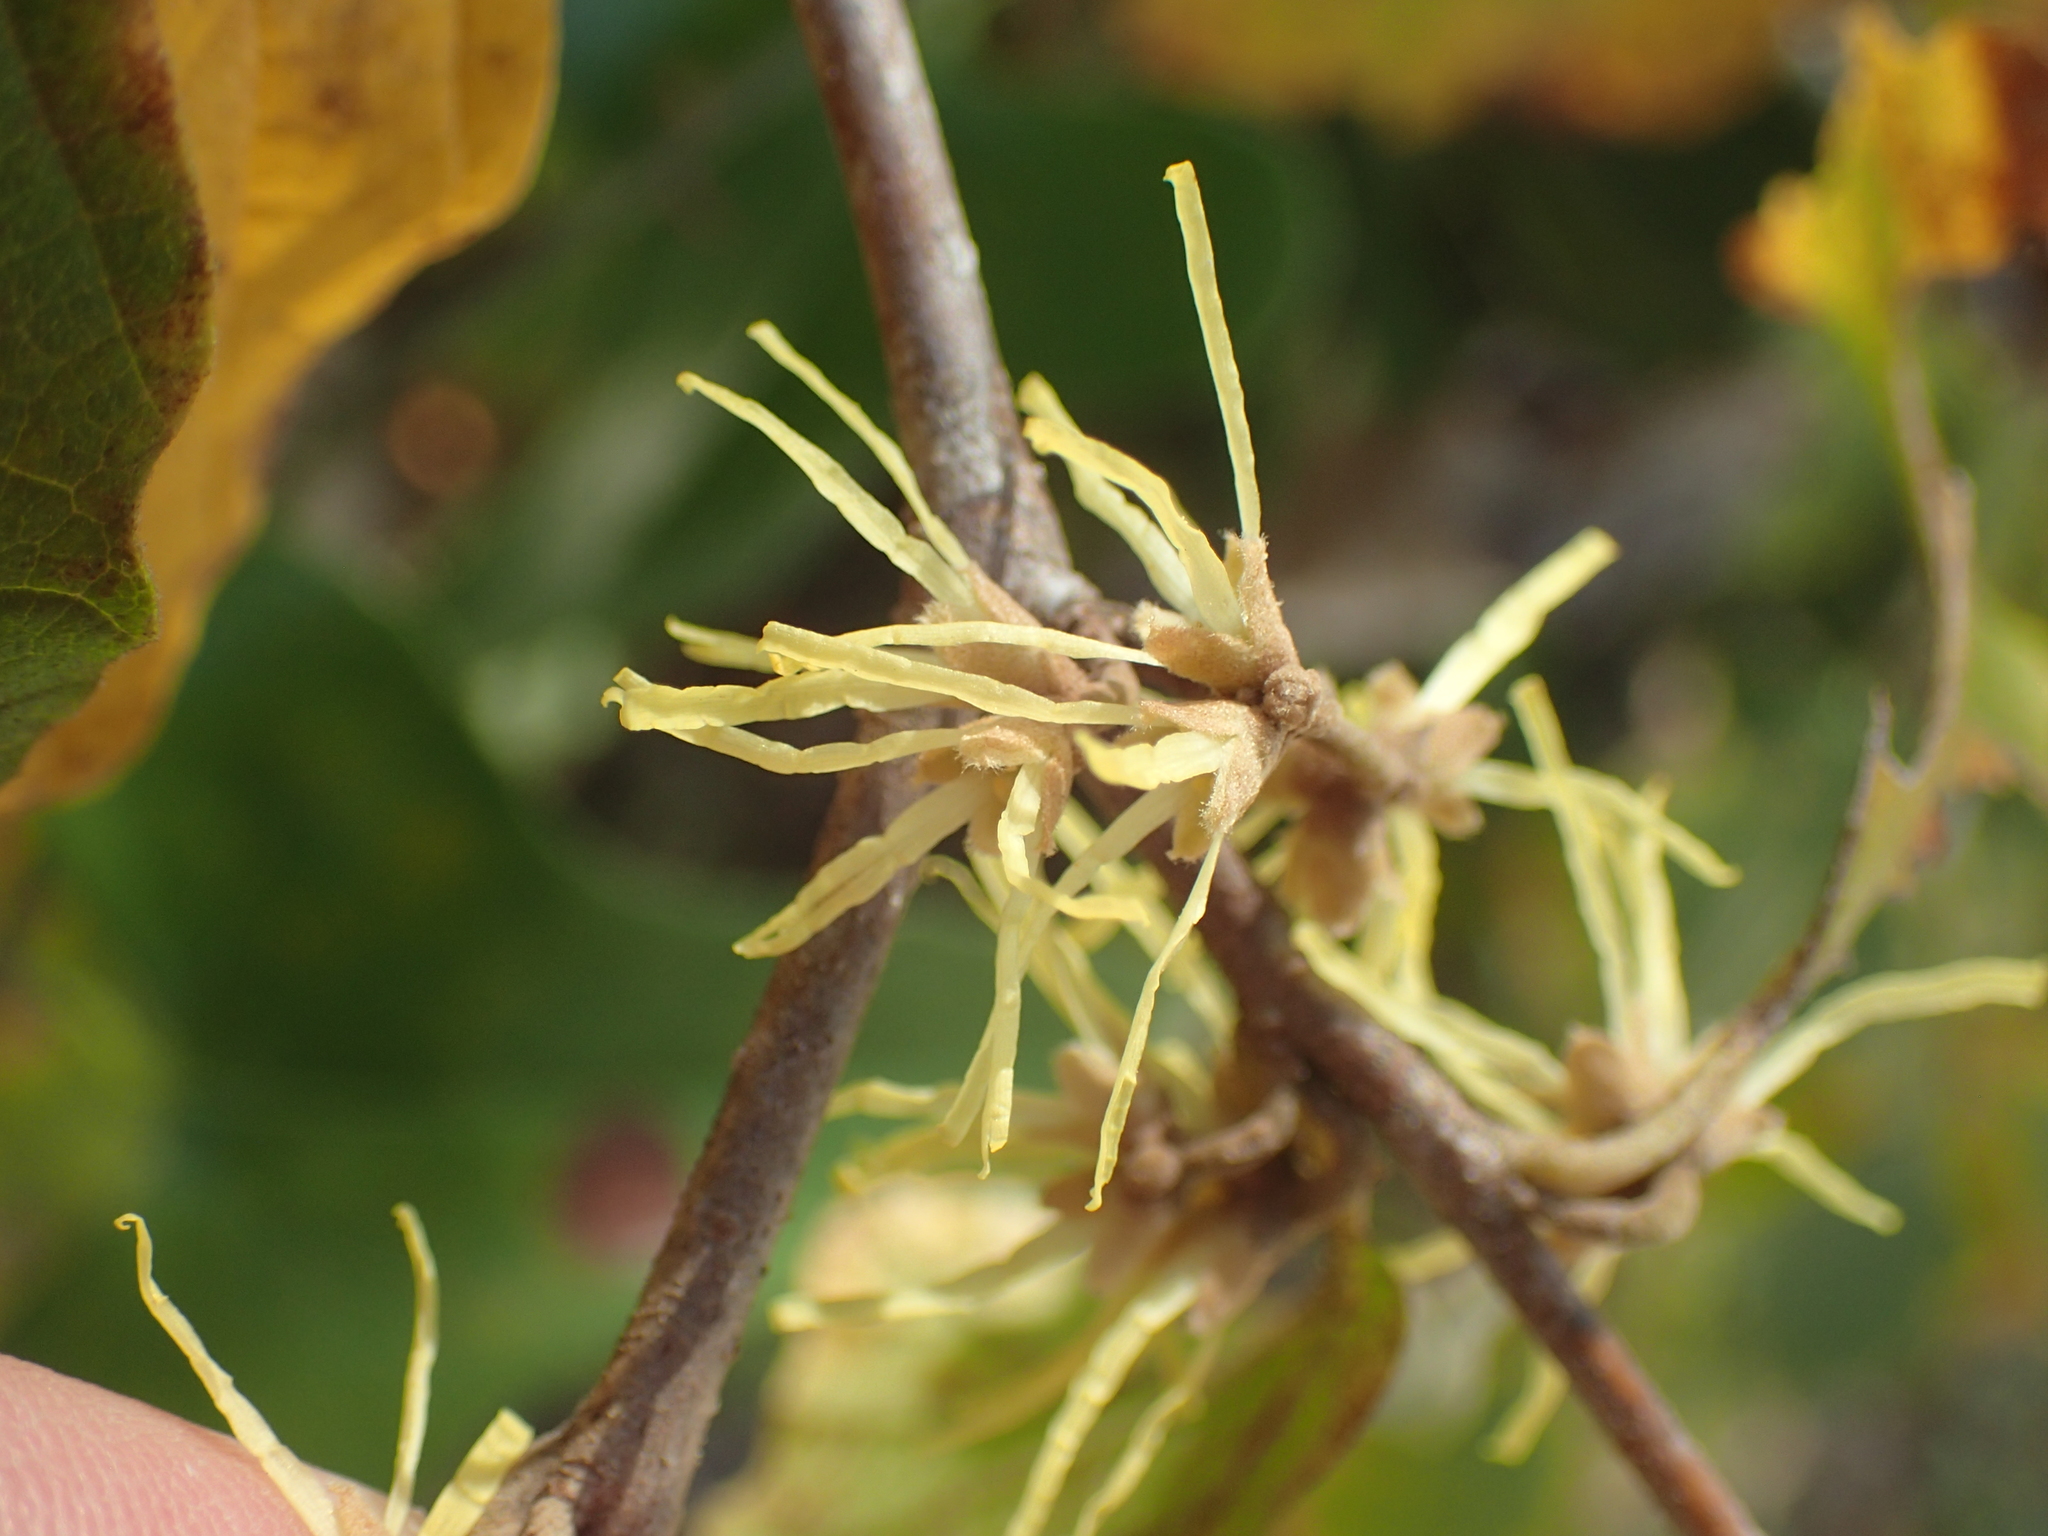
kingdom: Plantae
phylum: Tracheophyta
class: Magnoliopsida
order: Saxifragales
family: Hamamelidaceae
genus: Hamamelis
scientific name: Hamamelis virginiana
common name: Witch-hazel
